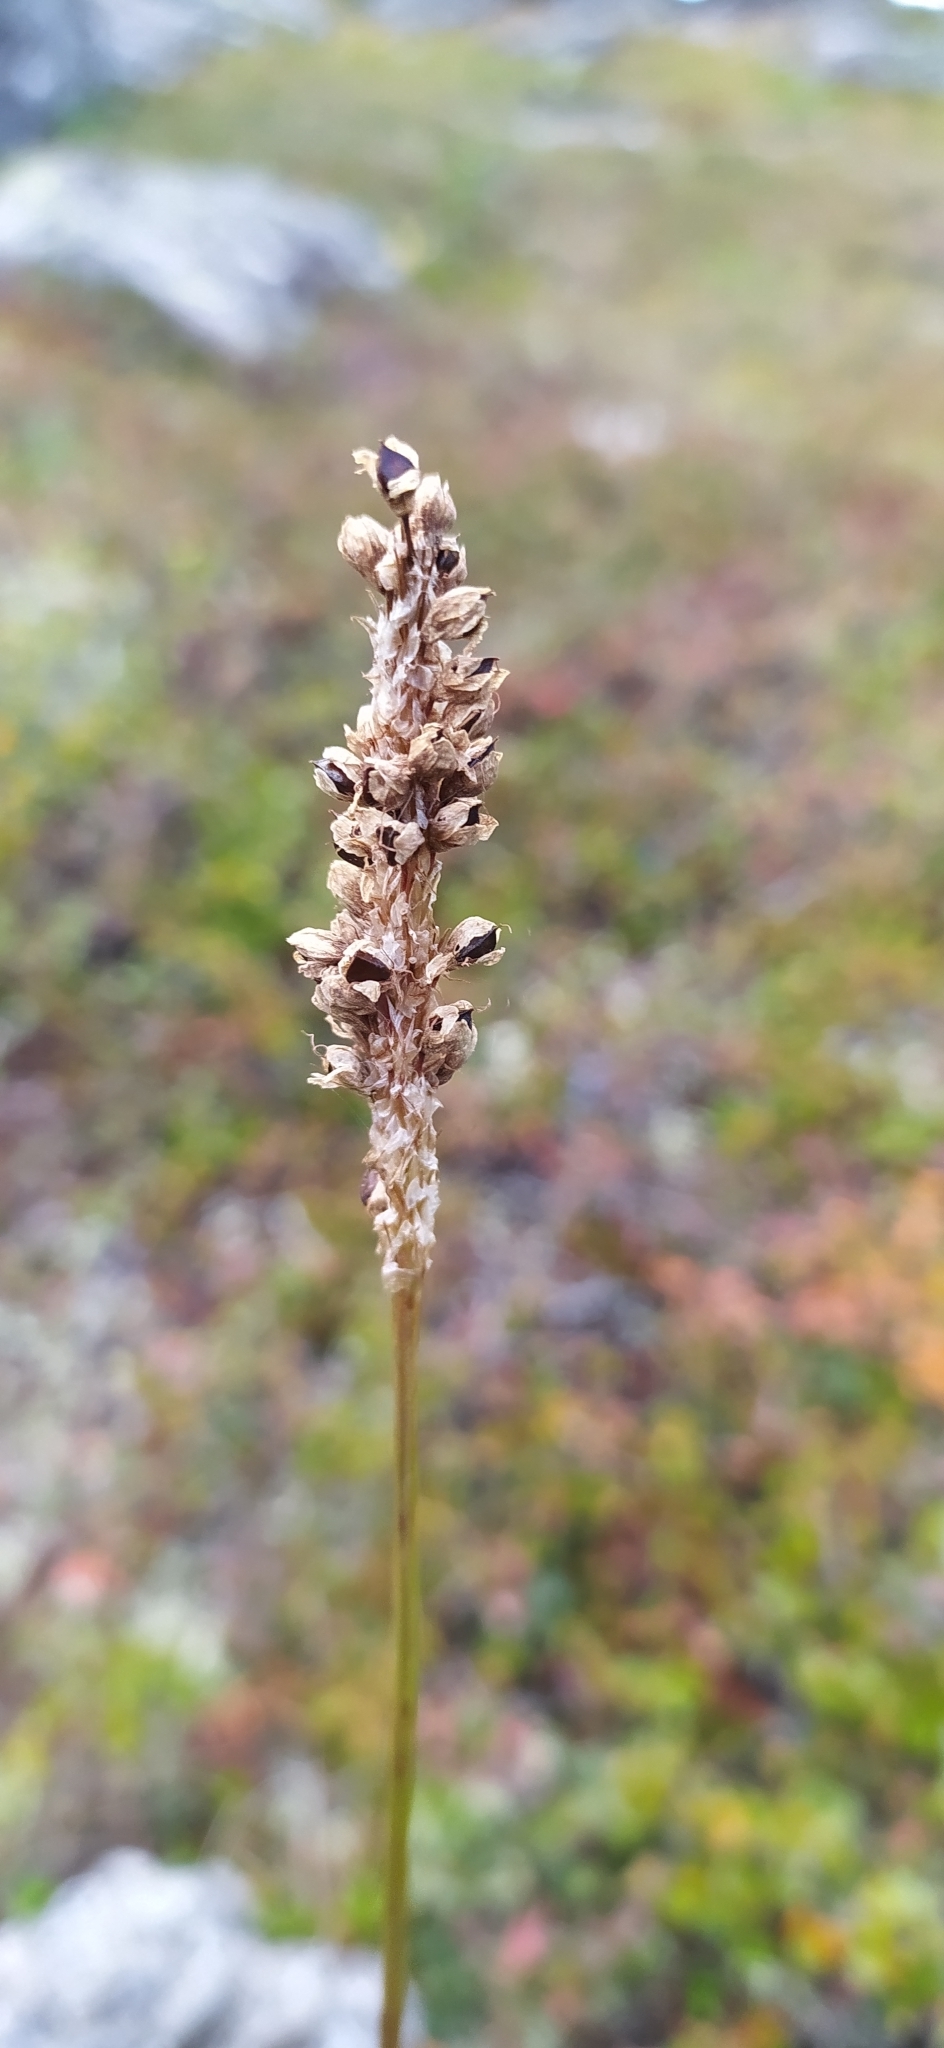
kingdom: Plantae
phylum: Tracheophyta
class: Magnoliopsida
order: Caryophyllales
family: Polygonaceae
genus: Bistorta
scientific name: Bistorta vivipara
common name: Alpine bistort
